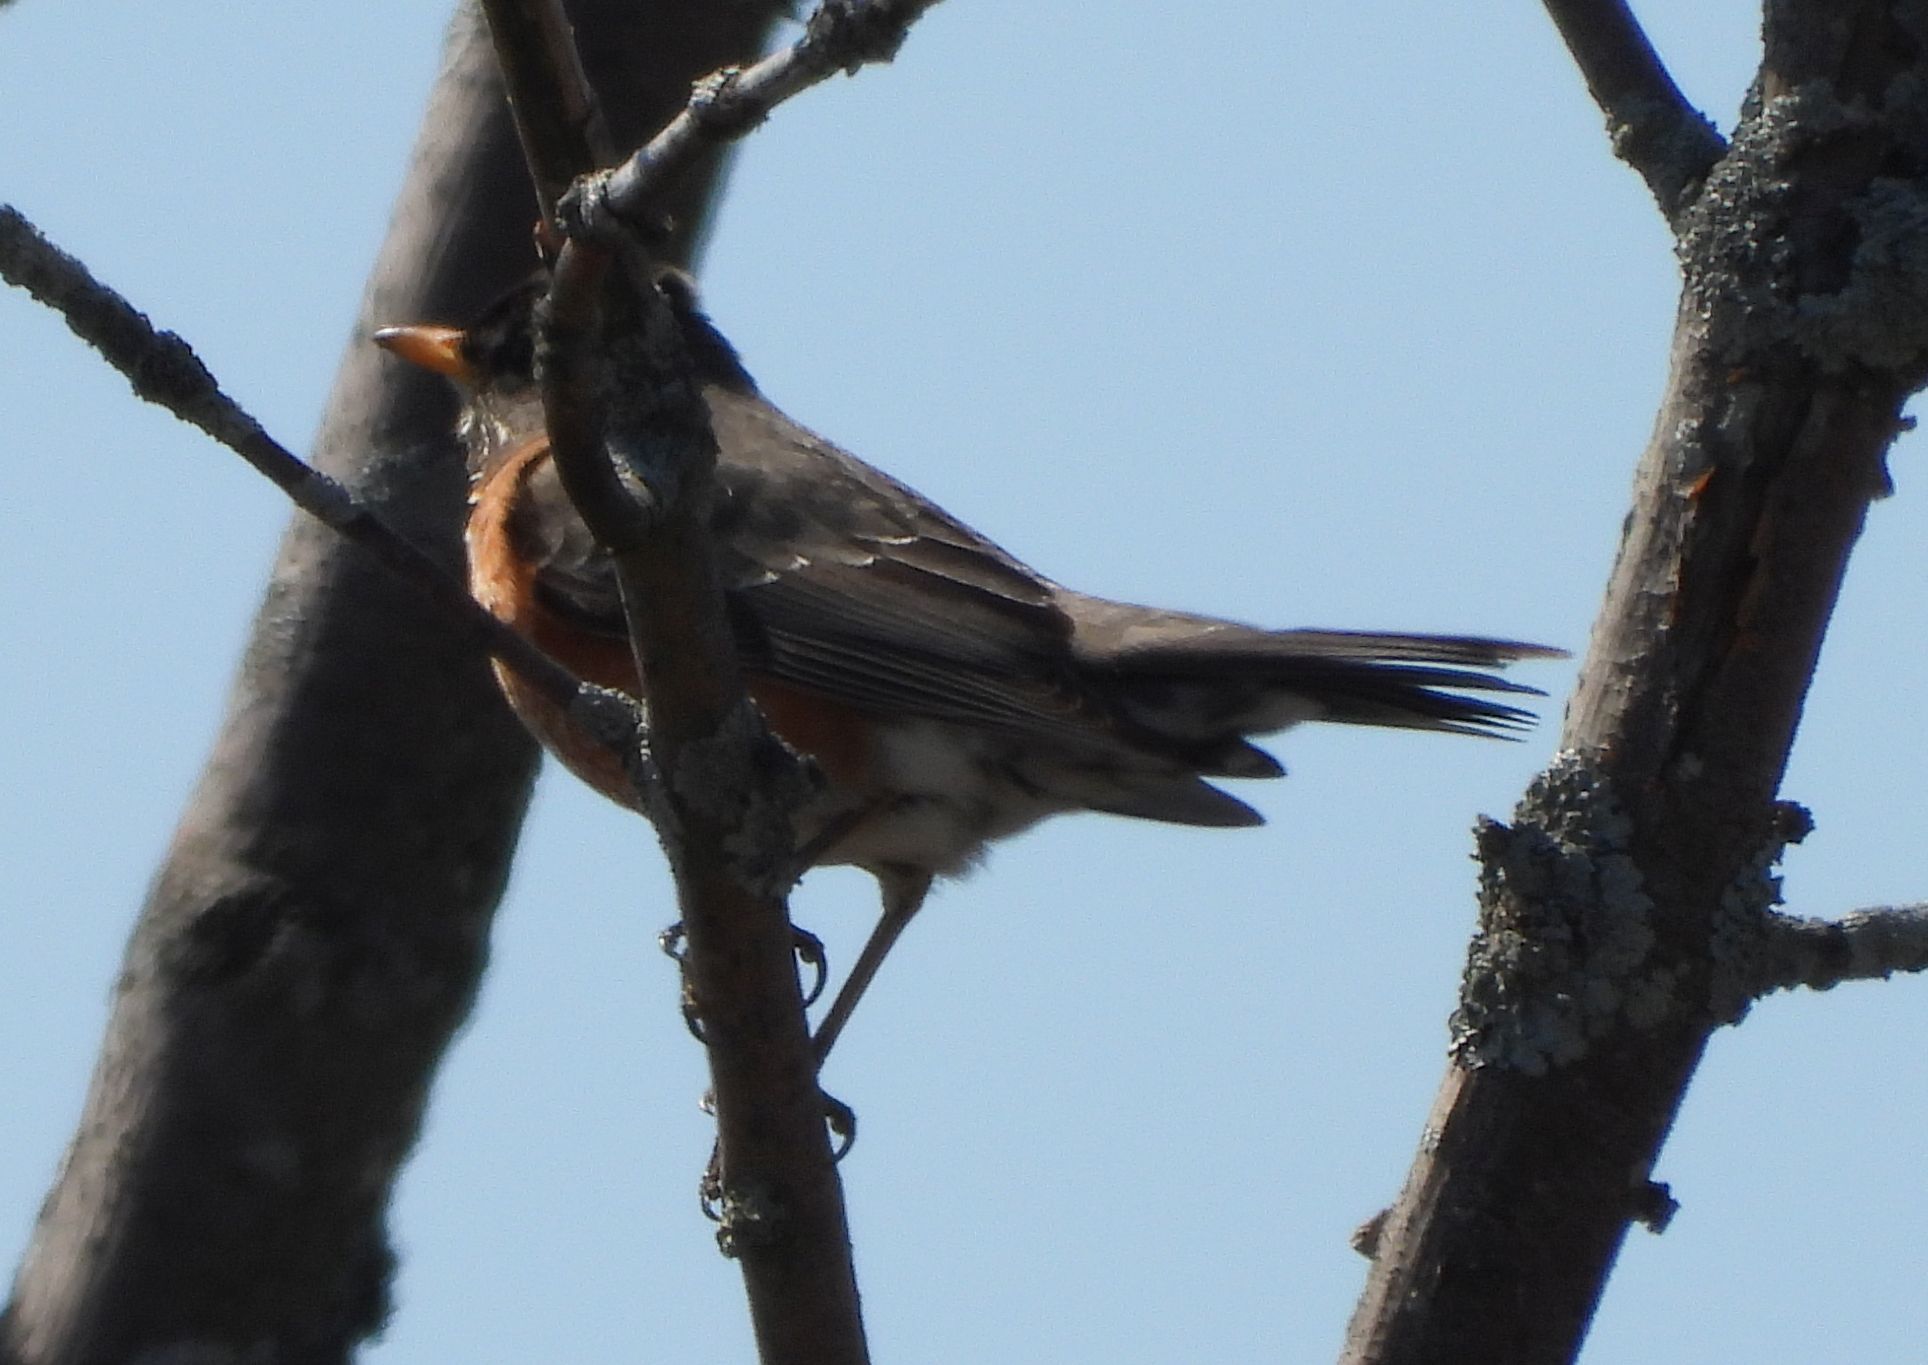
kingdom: Animalia
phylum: Chordata
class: Aves
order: Passeriformes
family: Turdidae
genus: Turdus
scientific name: Turdus migratorius
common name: American robin
